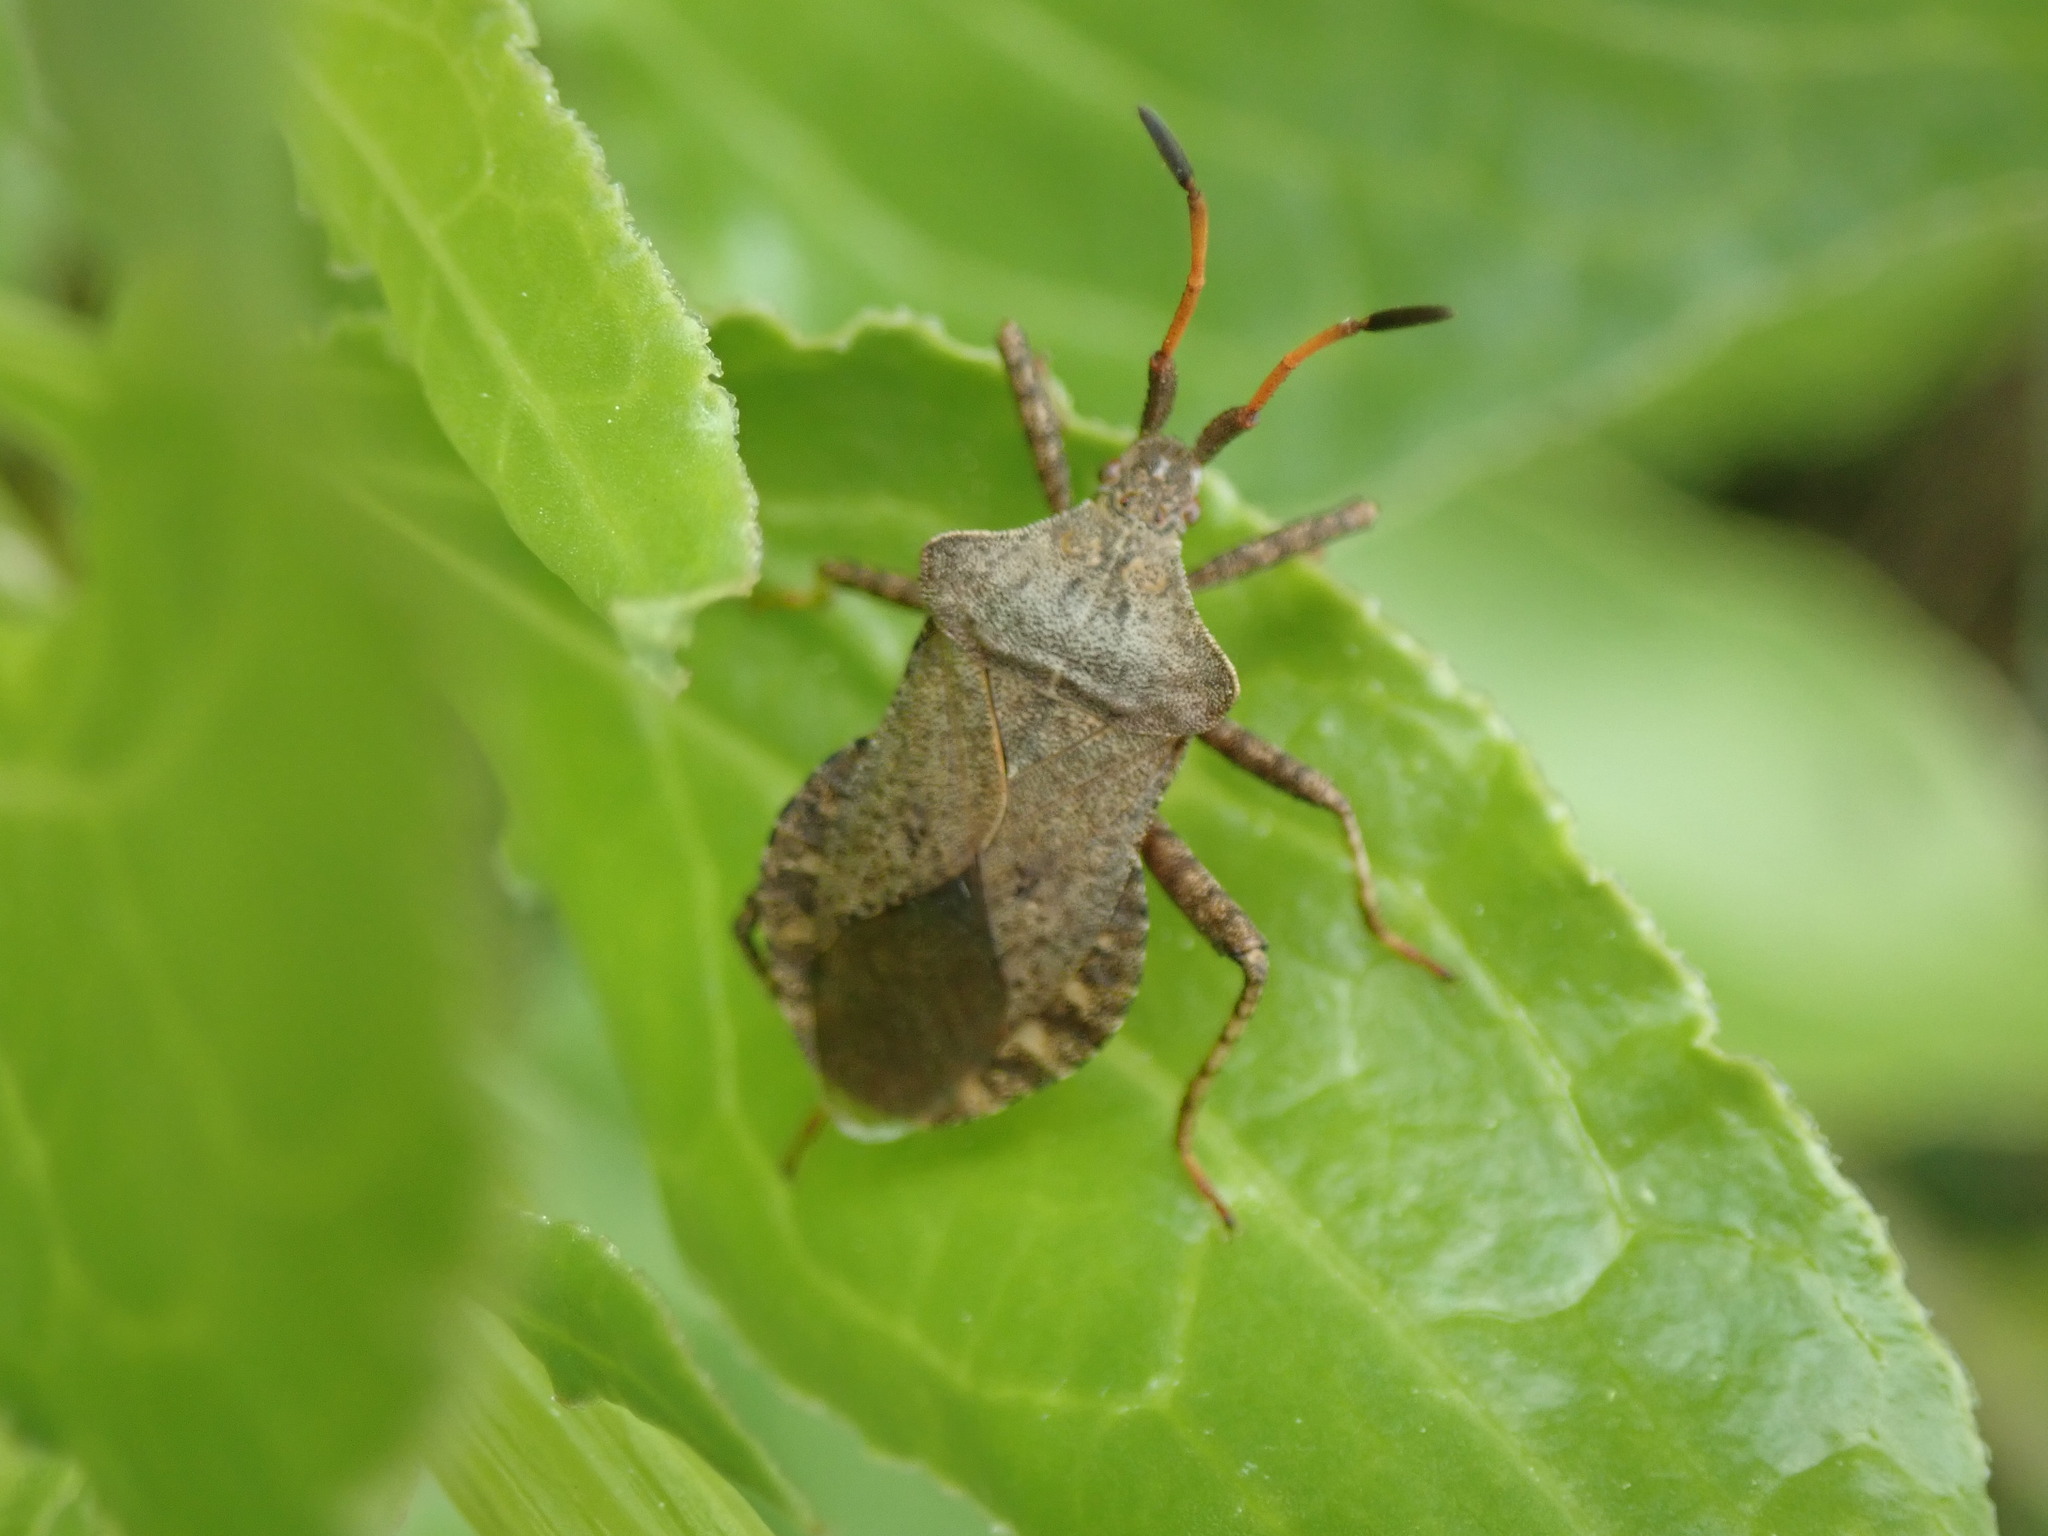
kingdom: Animalia
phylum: Arthropoda
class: Insecta
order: Hemiptera
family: Coreidae
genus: Coreus
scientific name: Coreus marginatus
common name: Dock bug
